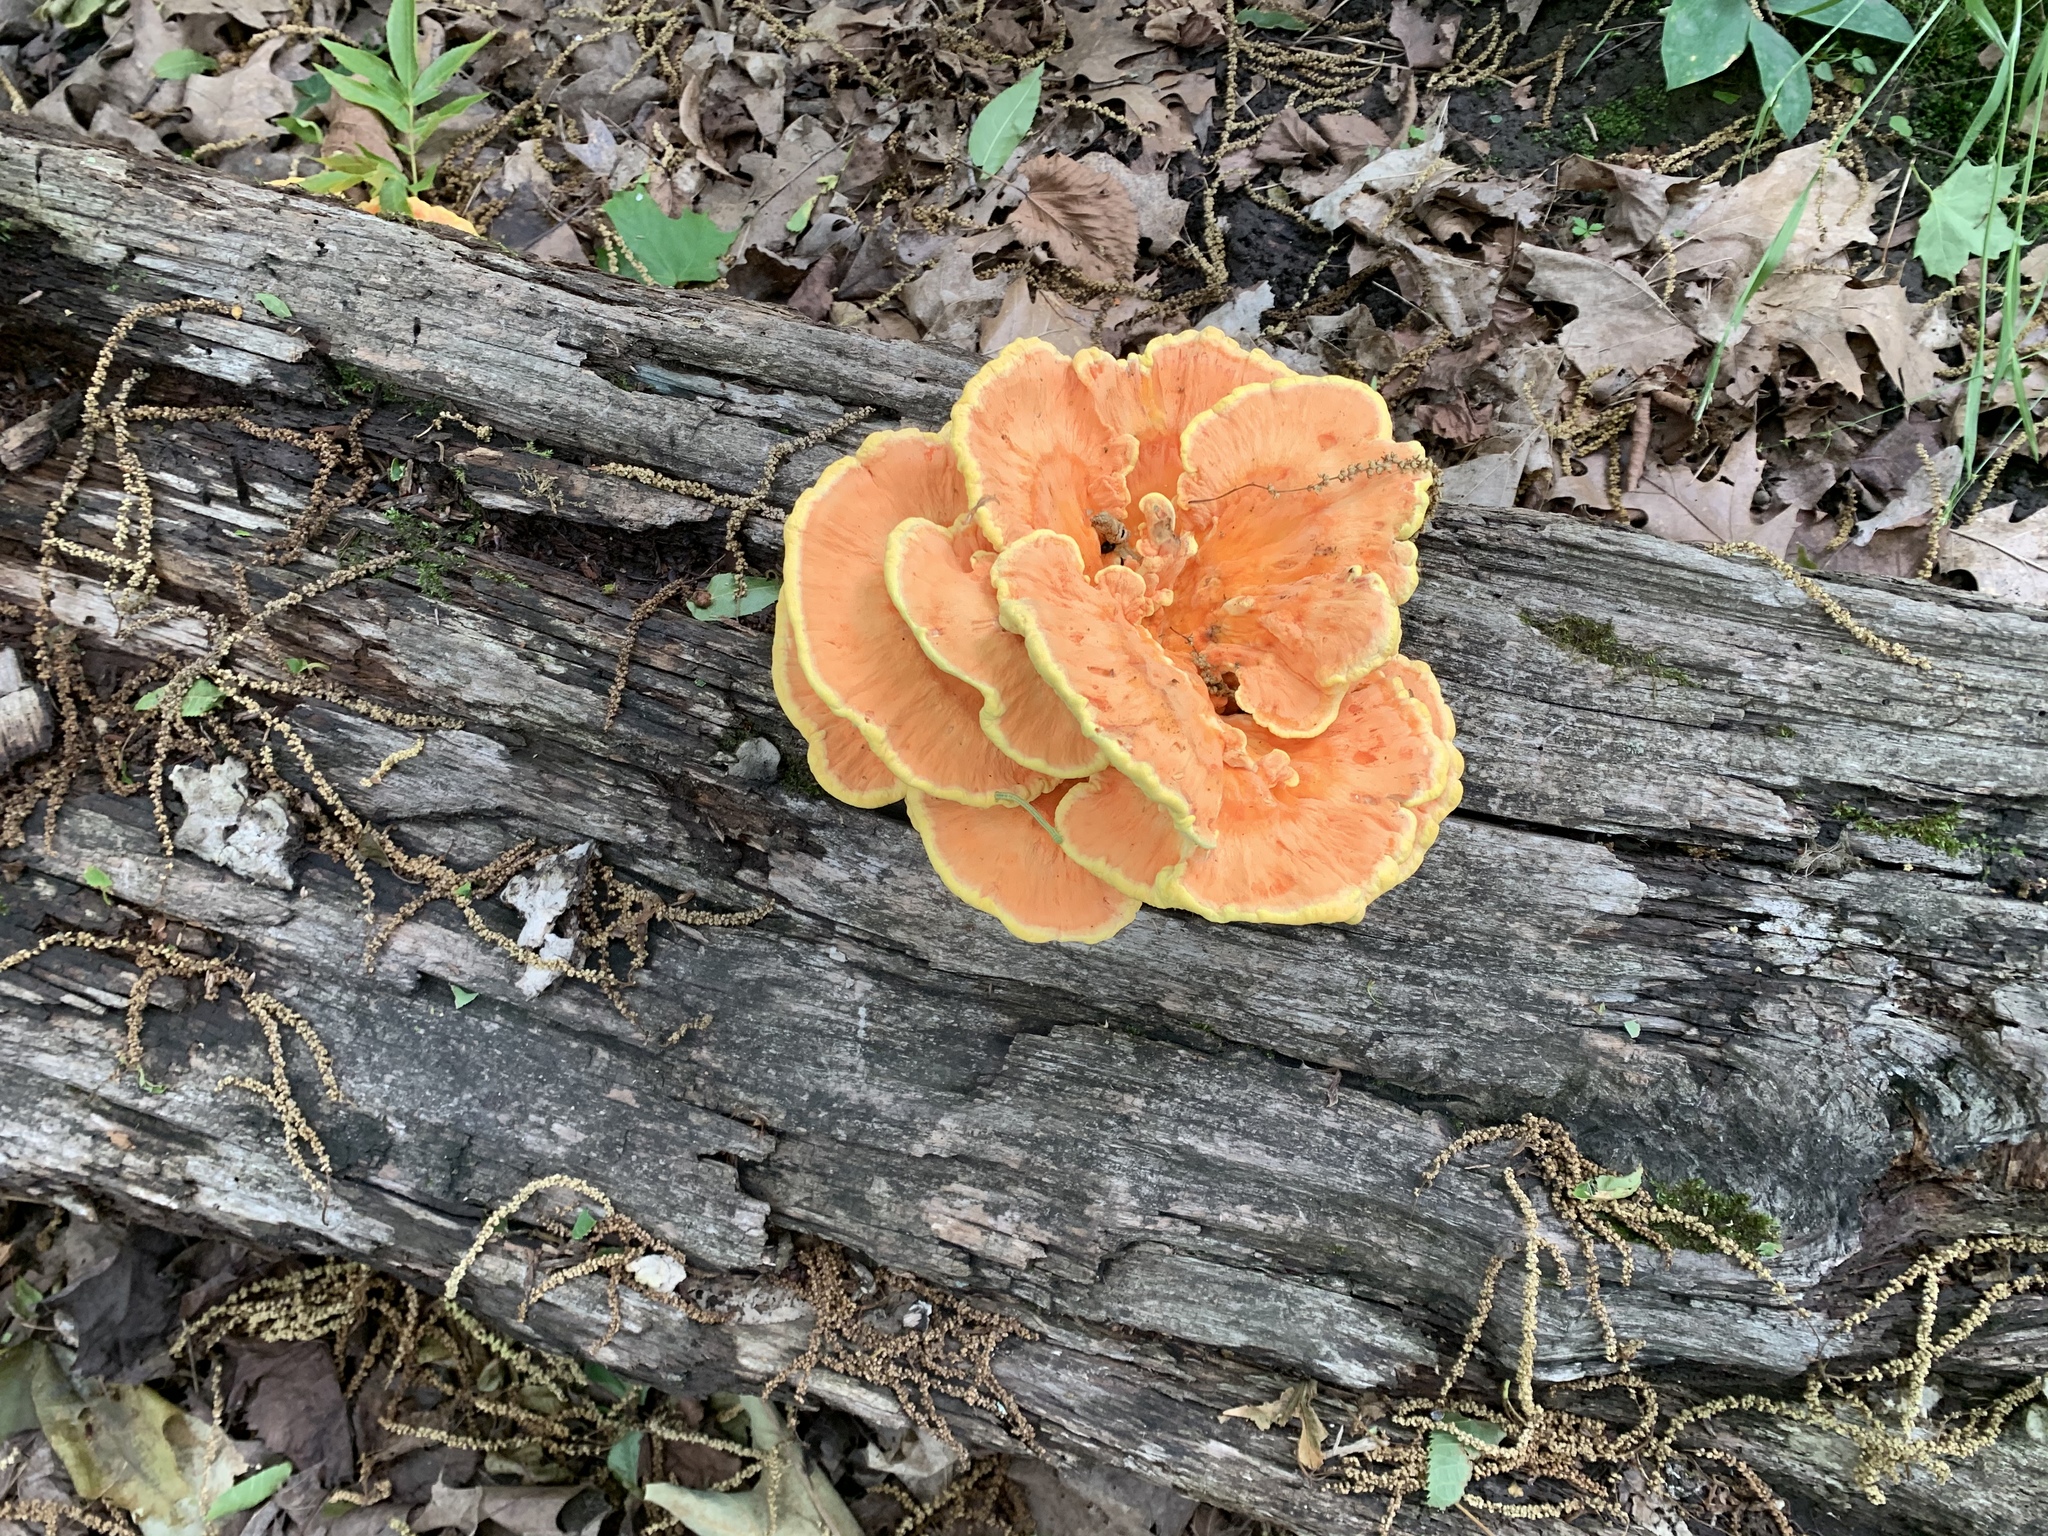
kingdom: Fungi
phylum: Basidiomycota
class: Agaricomycetes
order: Polyporales
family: Laetiporaceae
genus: Laetiporus
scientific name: Laetiporus sulphureus
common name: Chicken of the woods
